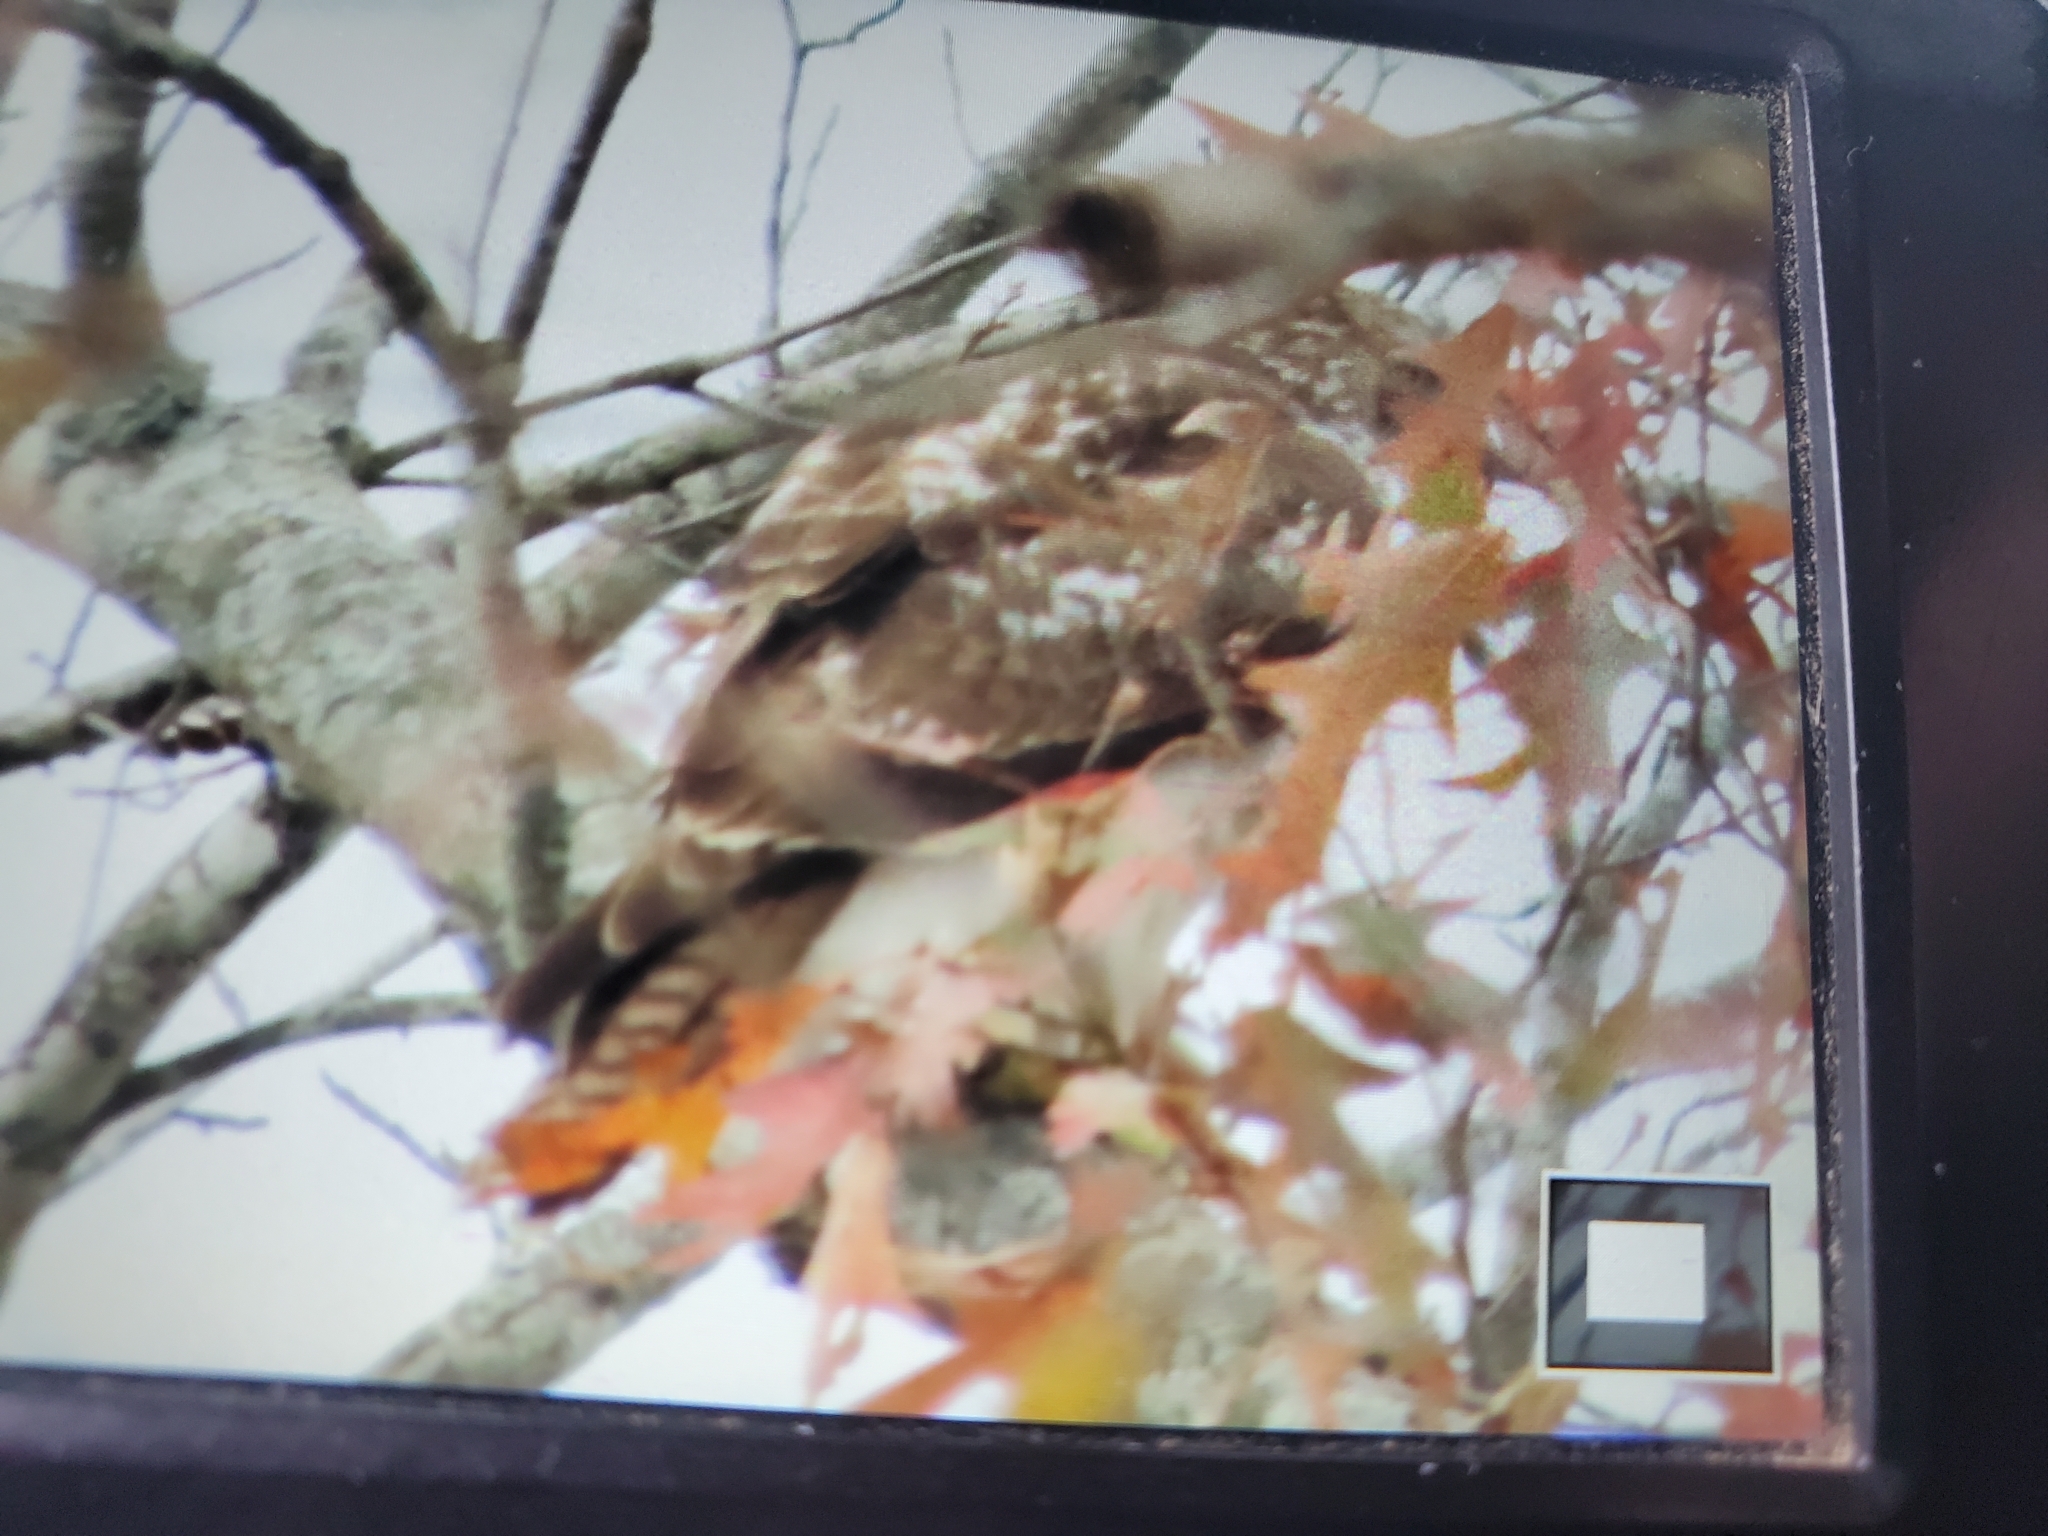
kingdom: Animalia
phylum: Chordata
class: Aves
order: Accipitriformes
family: Accipitridae
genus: Buteo
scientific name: Buteo jamaicensis
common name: Red-tailed hawk
